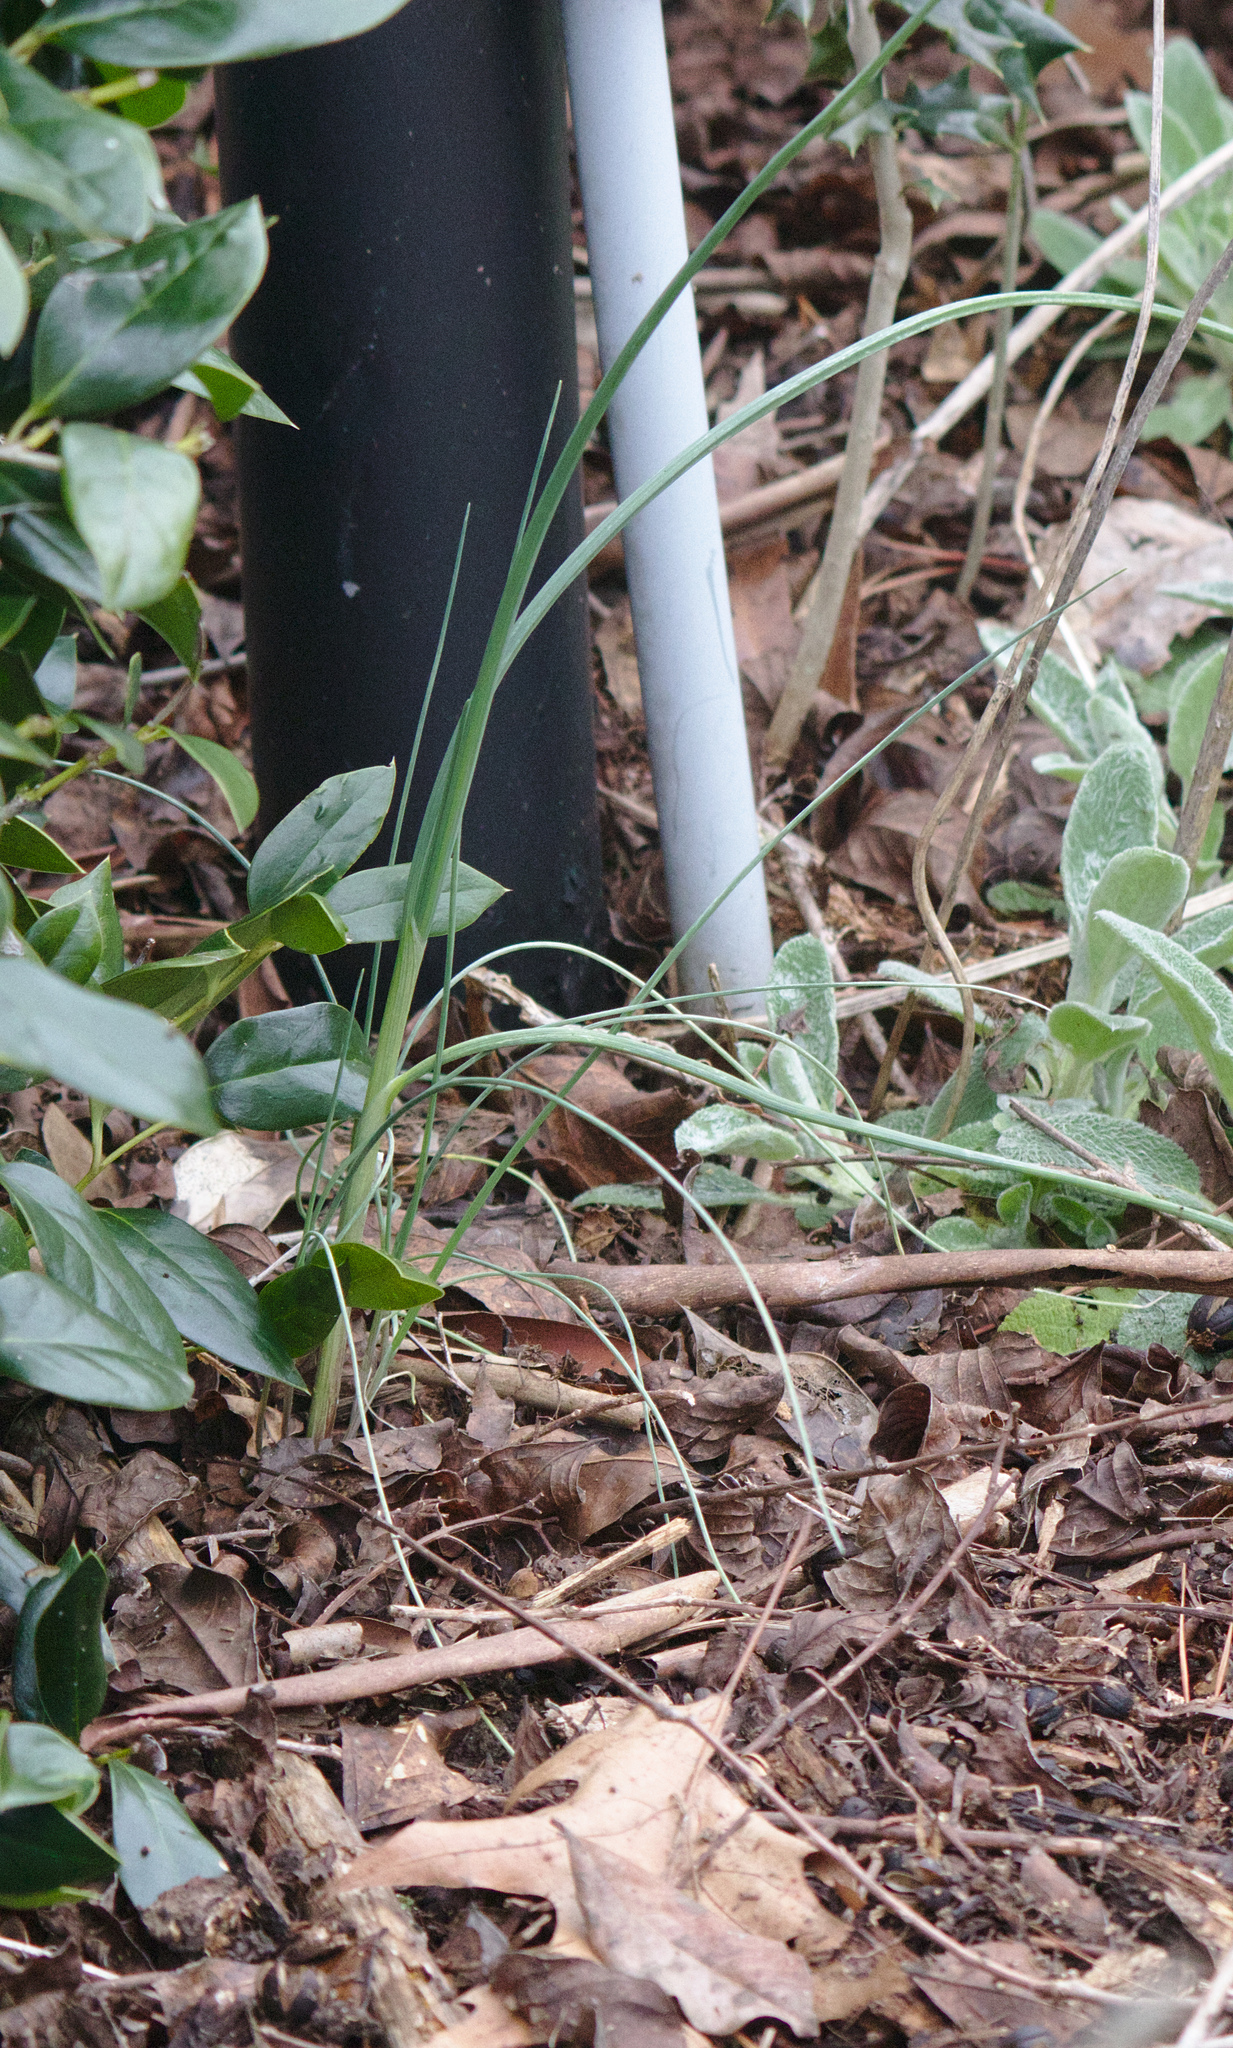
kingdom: Plantae
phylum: Tracheophyta
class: Liliopsida
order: Asparagales
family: Amaryllidaceae
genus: Allium
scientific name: Allium vineale
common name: Crow garlic
